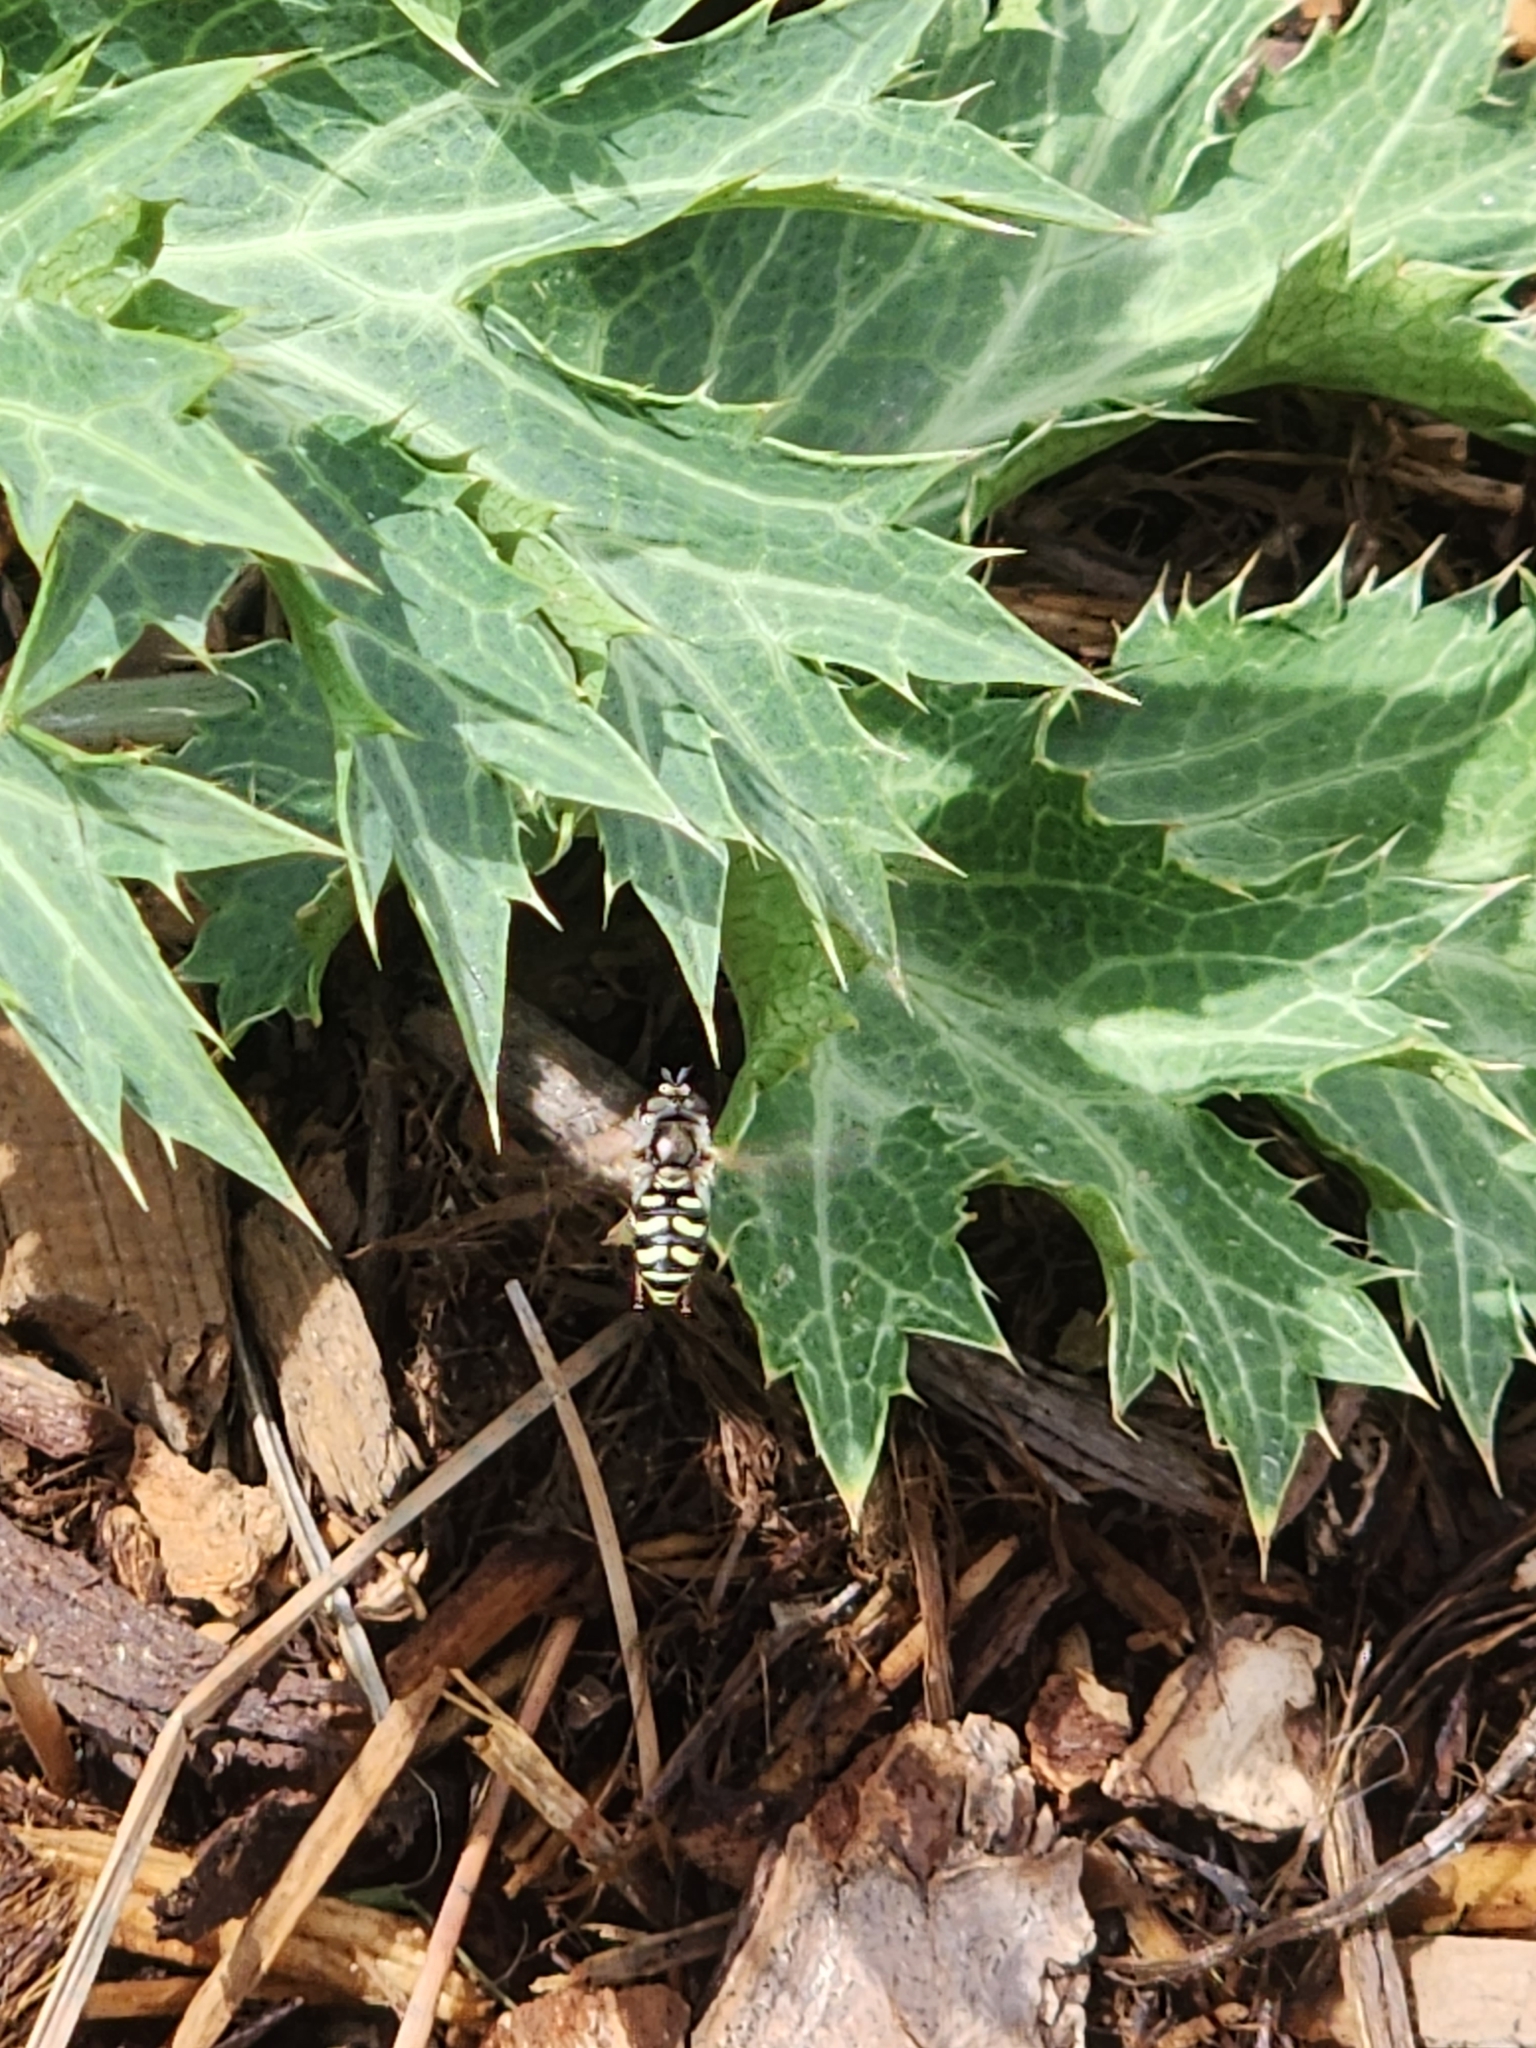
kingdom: Animalia
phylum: Arthropoda
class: Insecta
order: Diptera
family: Syrphidae
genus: Eupeodes
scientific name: Eupeodes volucris
